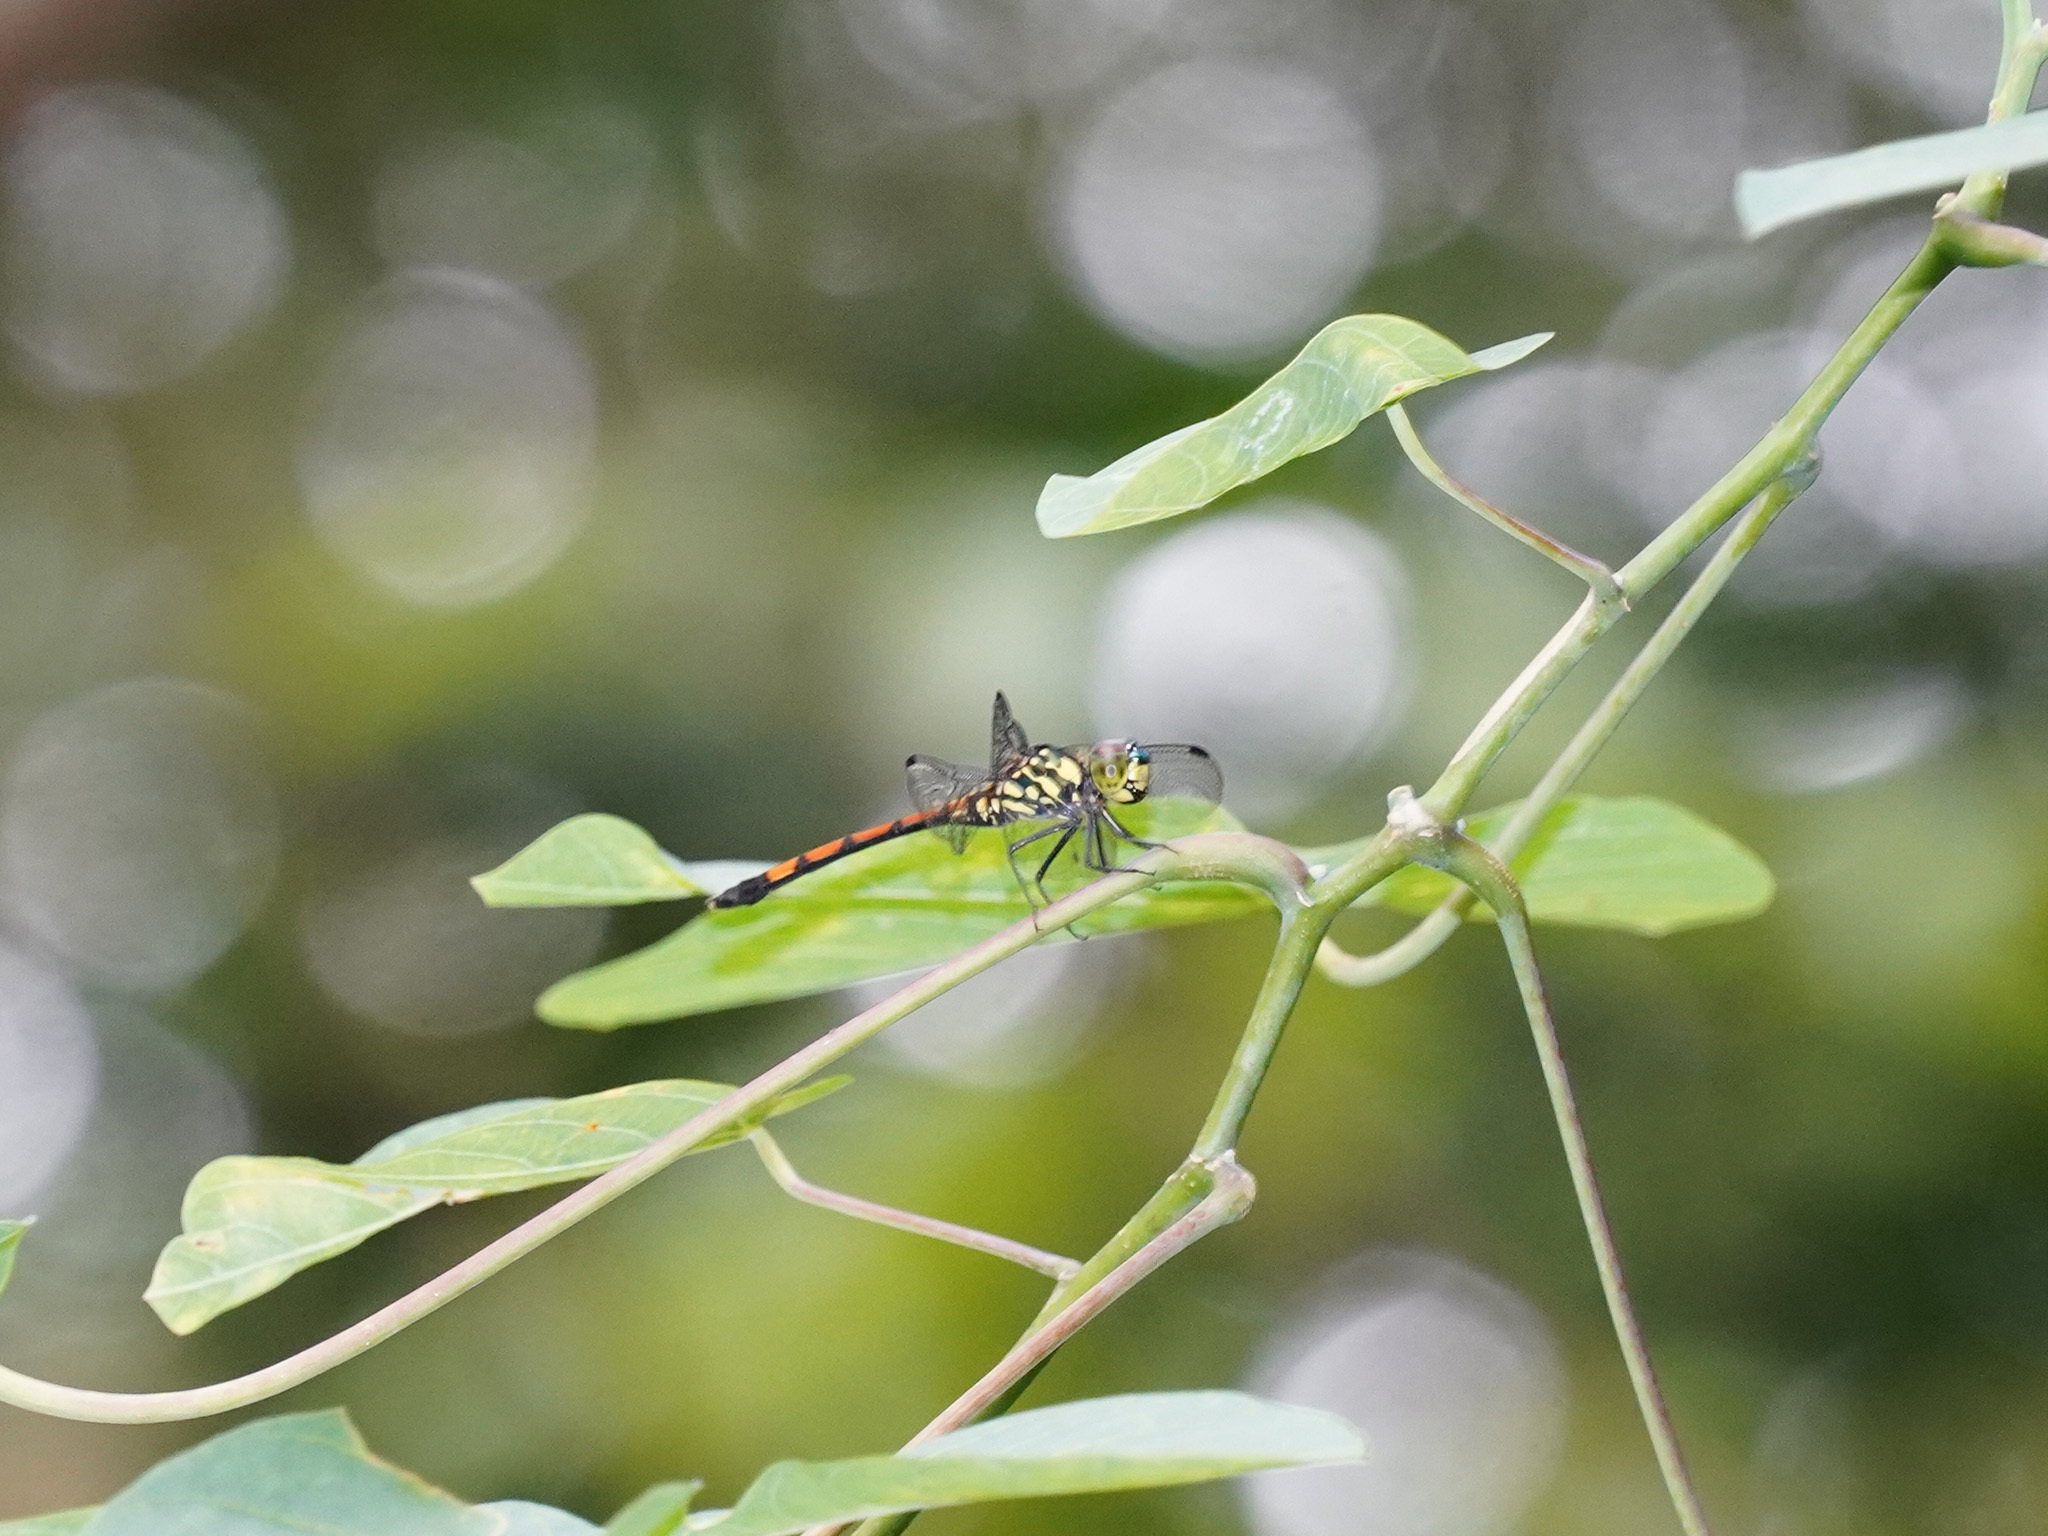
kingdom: Animalia
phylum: Arthropoda
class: Insecta
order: Odonata
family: Libellulidae
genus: Agrionoptera
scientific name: Agrionoptera insignis
